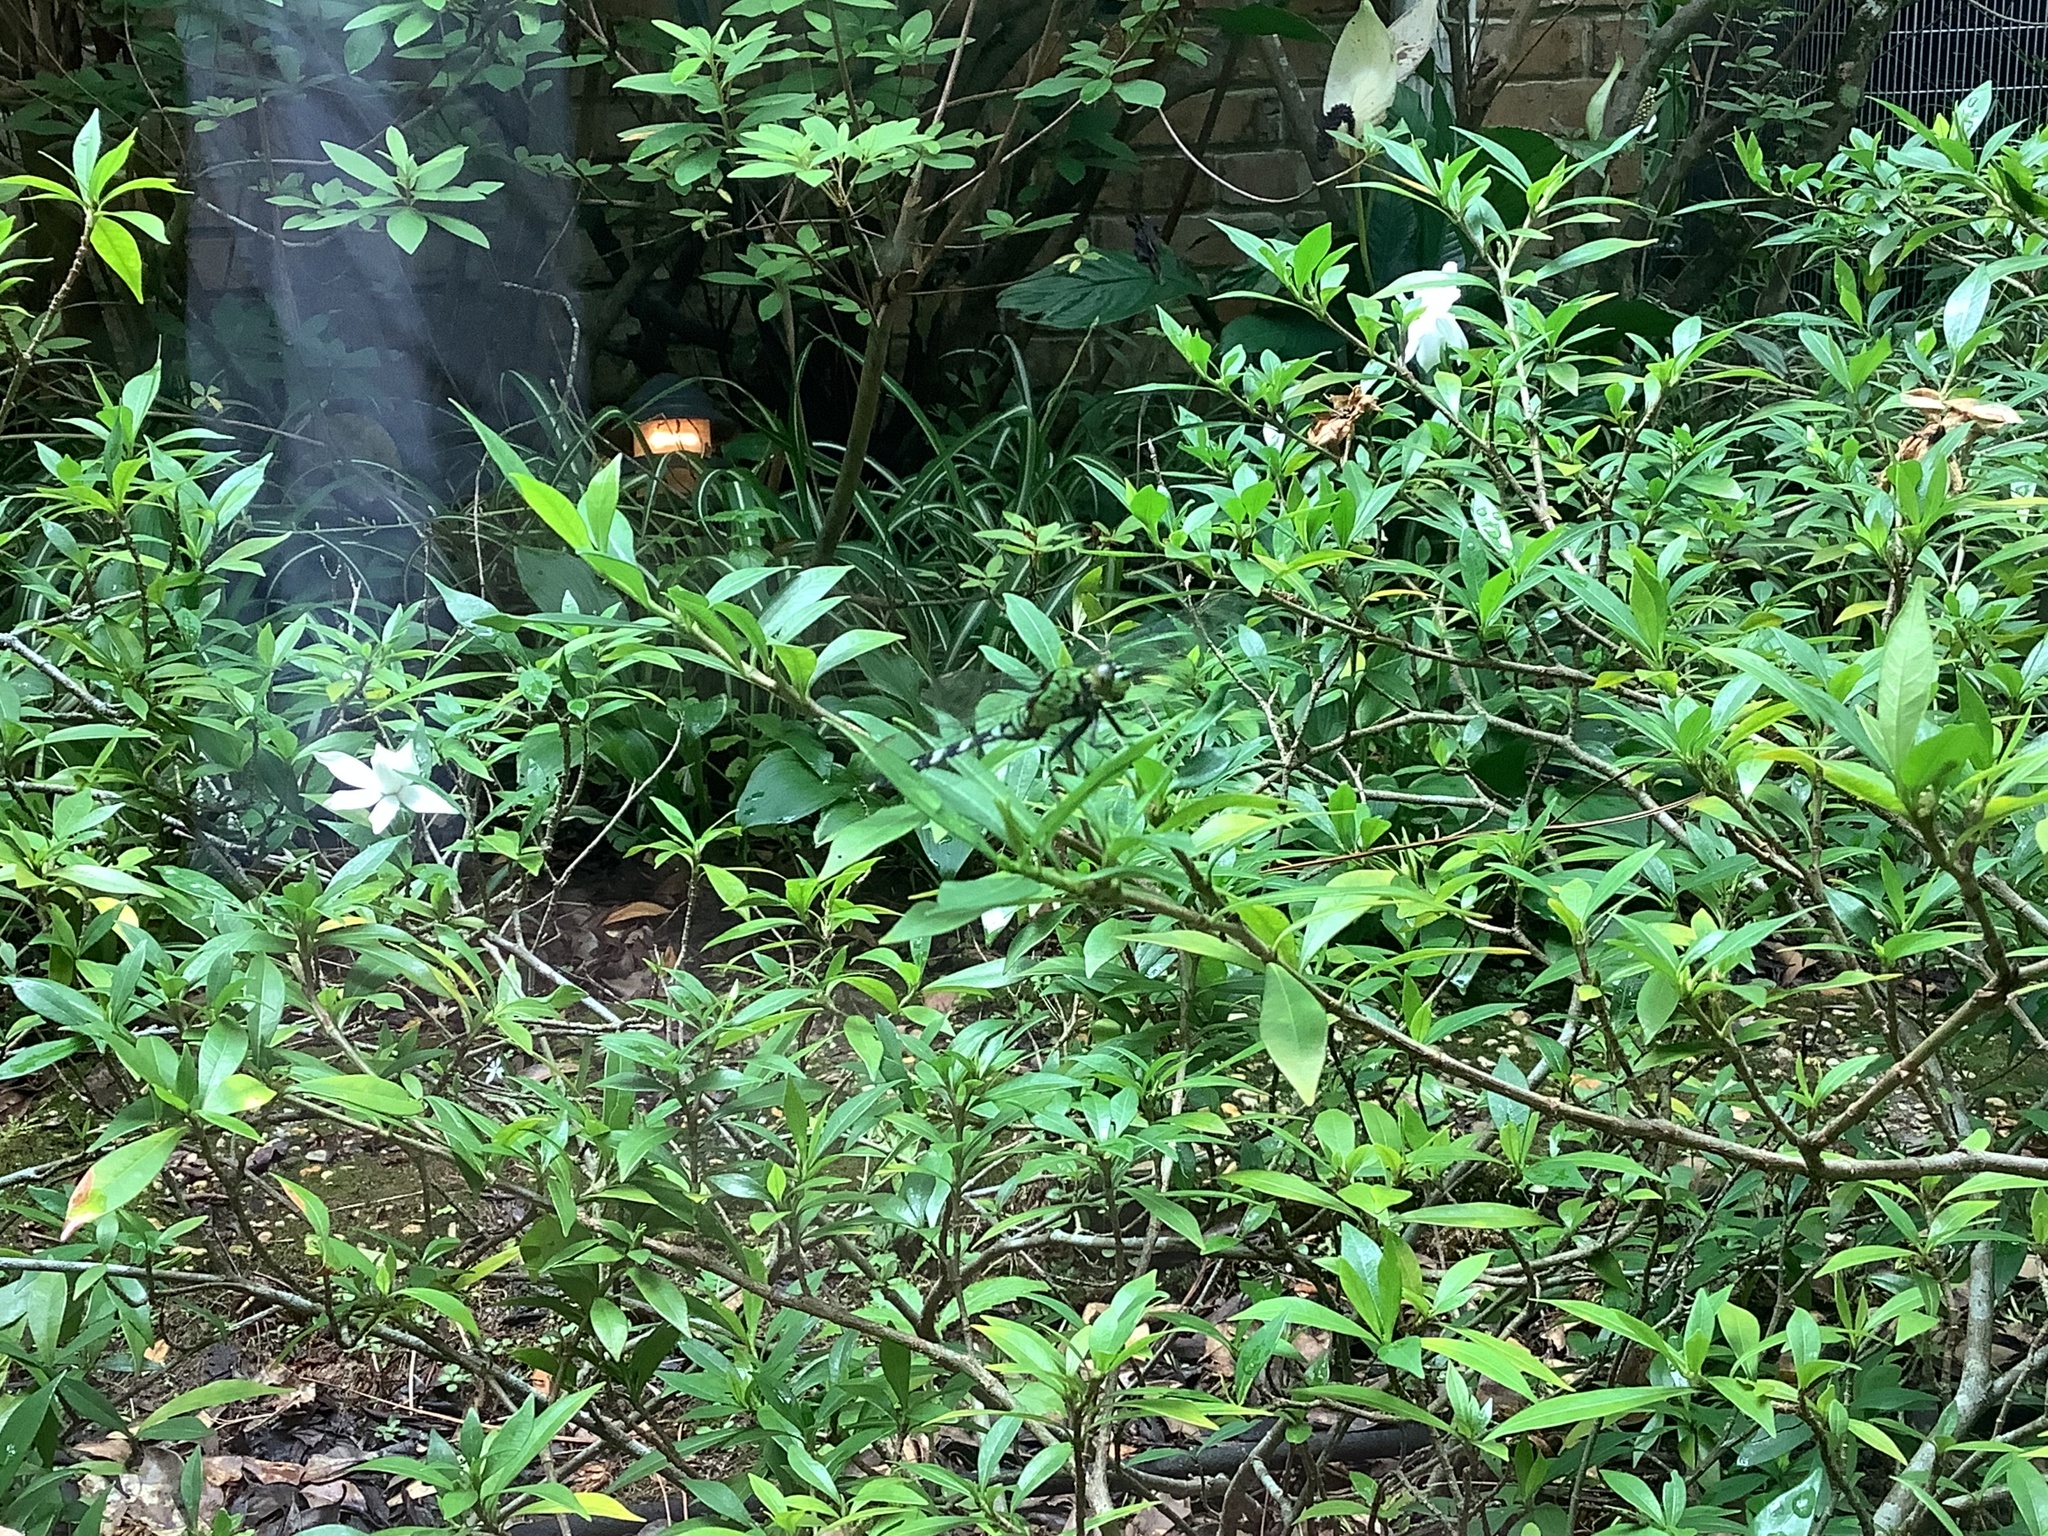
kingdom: Animalia
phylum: Arthropoda
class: Insecta
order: Odonata
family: Libellulidae
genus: Erythemis
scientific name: Erythemis simplicicollis
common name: Eastern pondhawk
